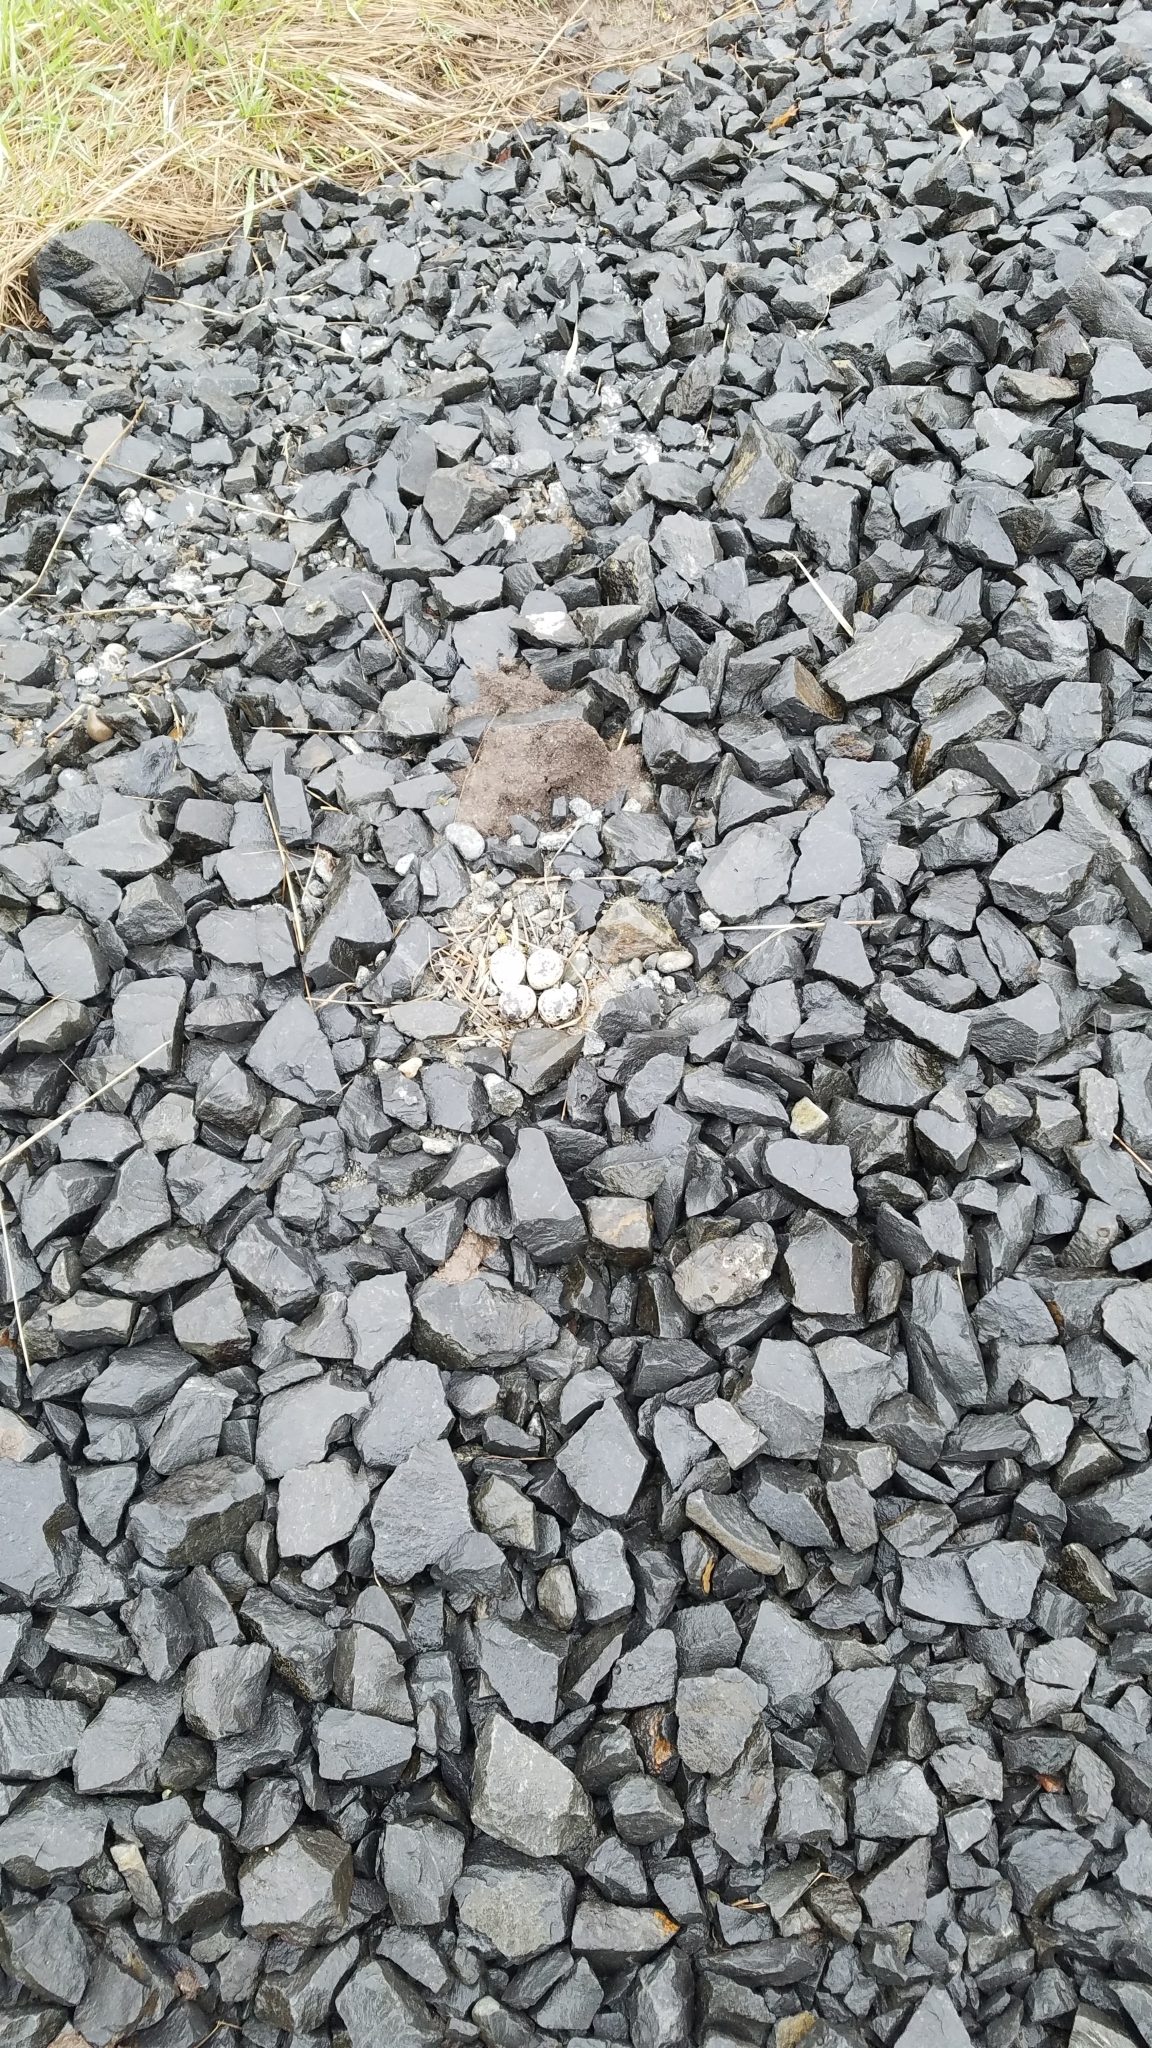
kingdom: Animalia
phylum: Chordata
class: Aves
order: Charadriiformes
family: Charadriidae
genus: Charadrius
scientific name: Charadrius vociferus
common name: Killdeer
